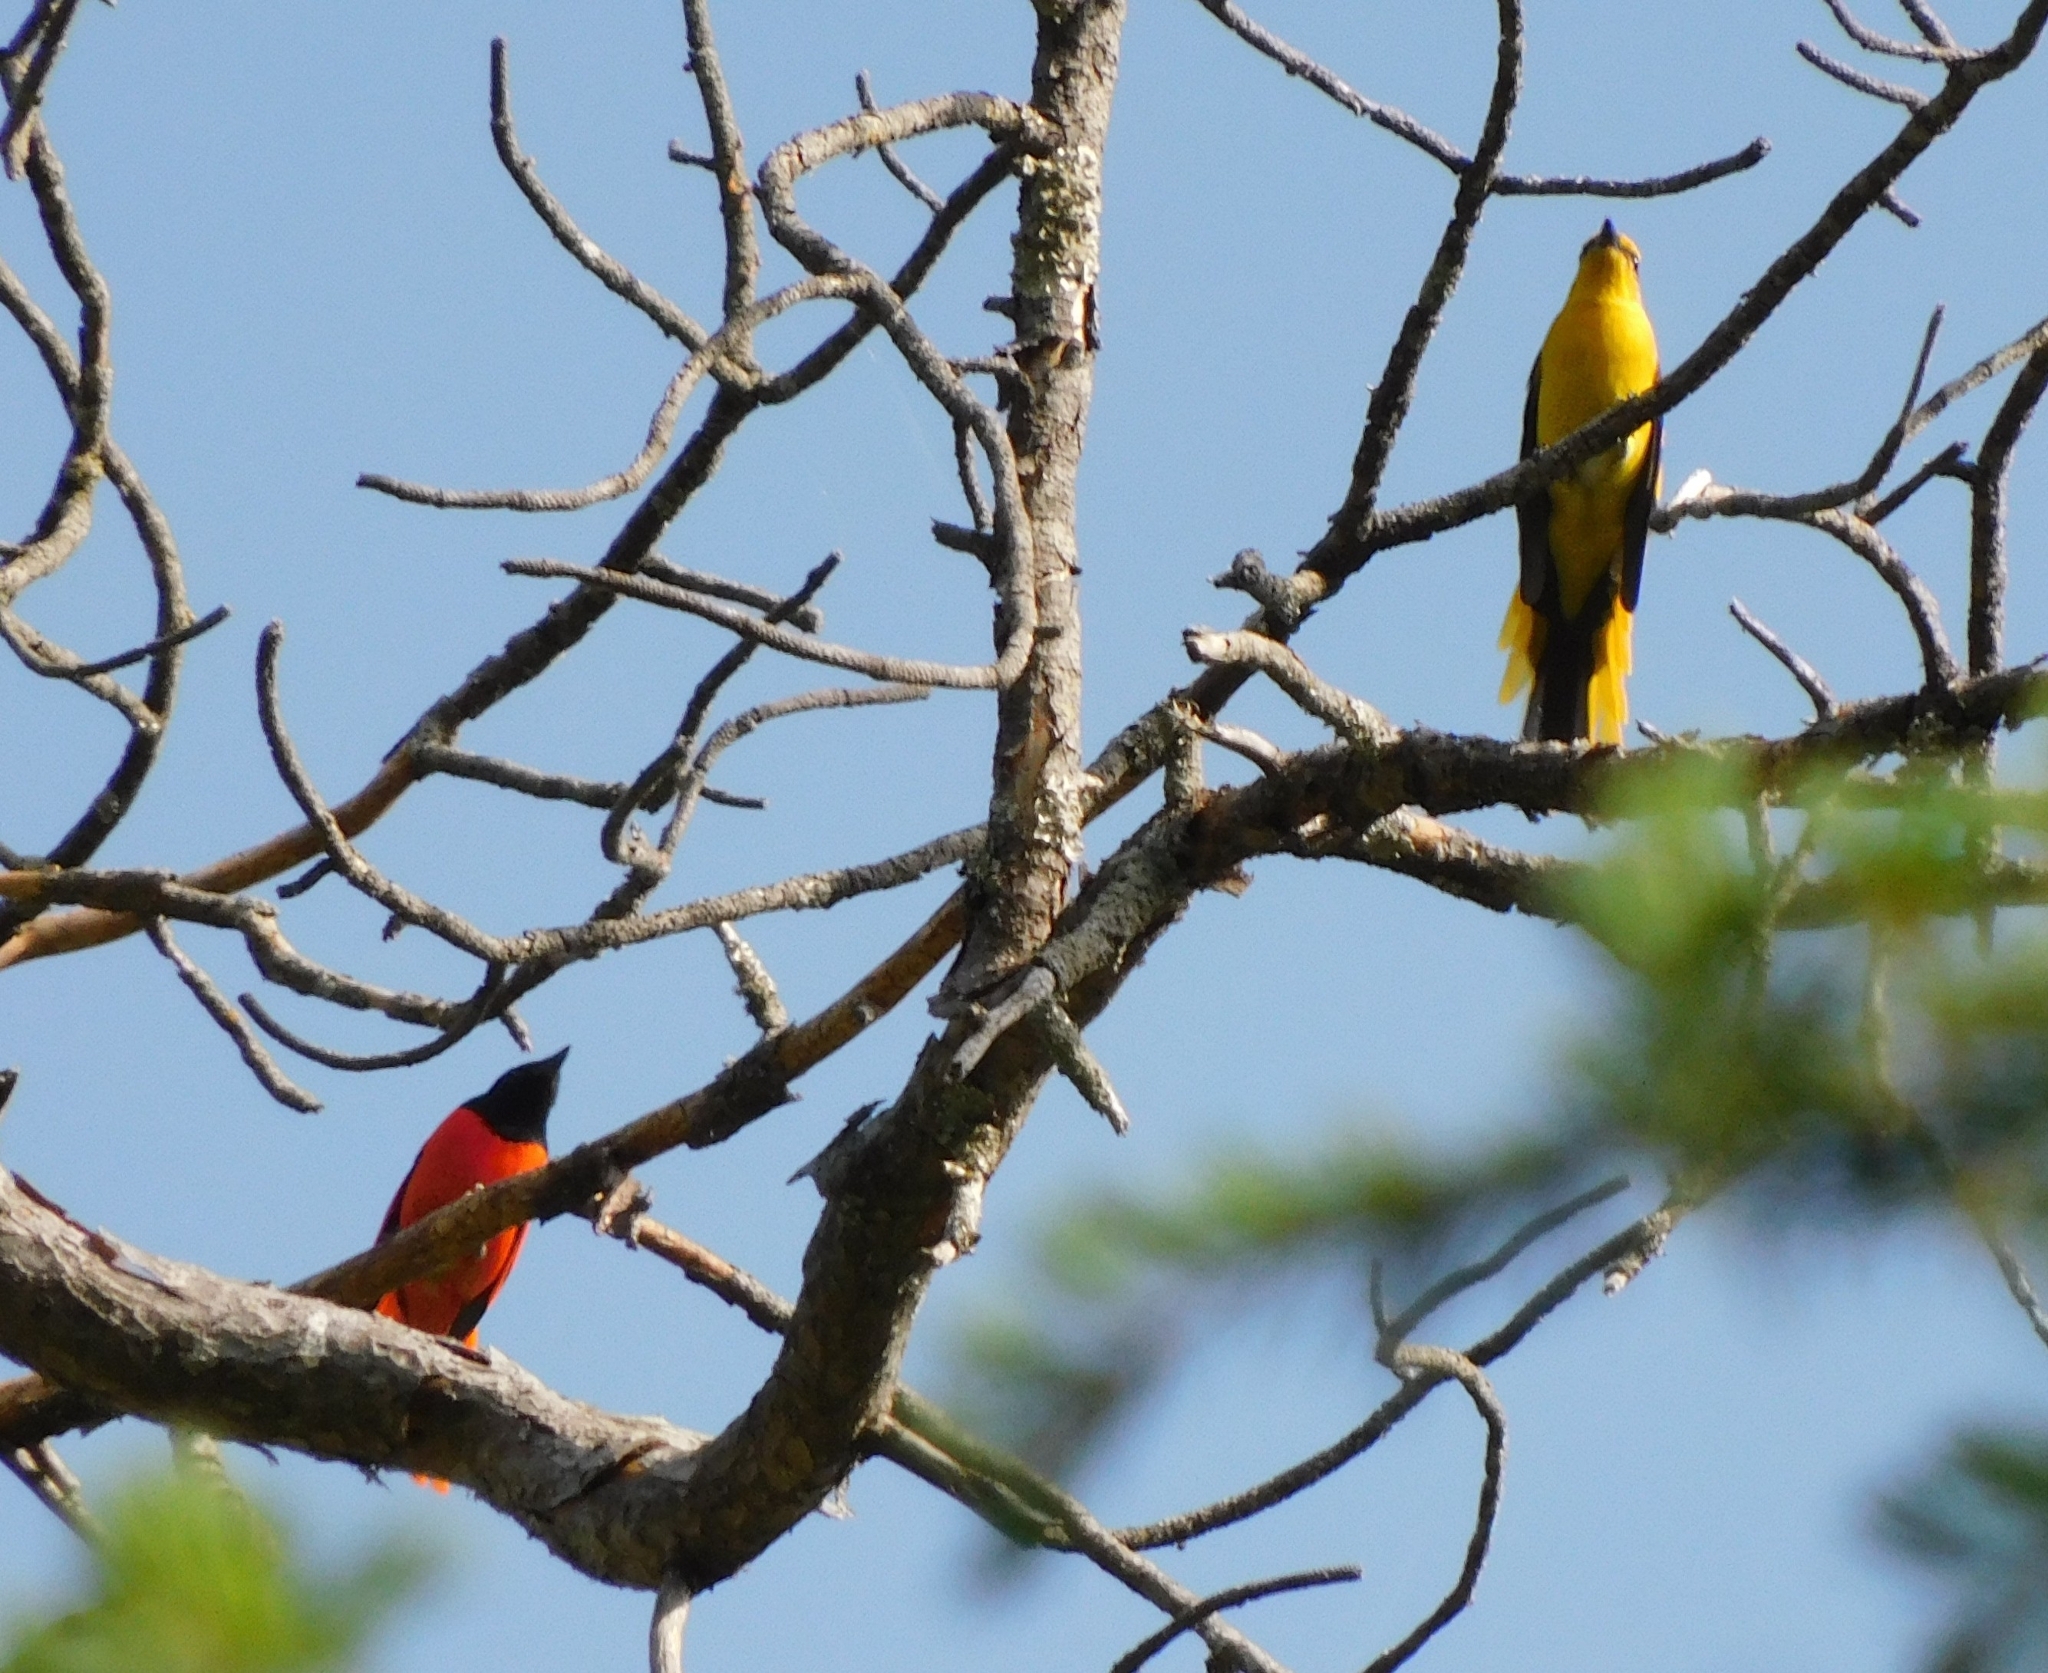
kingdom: Animalia
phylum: Chordata
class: Aves
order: Passeriformes
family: Campephagidae
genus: Pericrocotus
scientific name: Pericrocotus ethologus
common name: Long-tailed minivet
